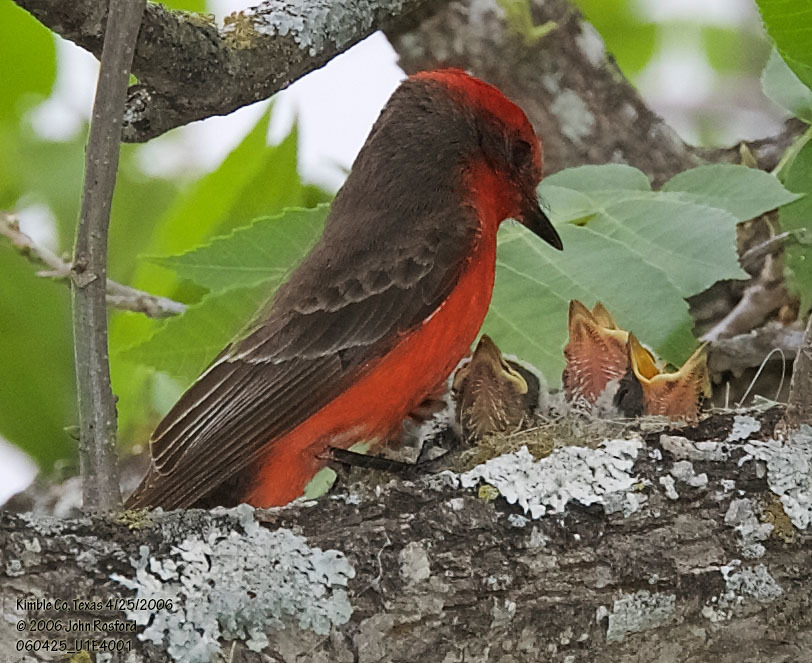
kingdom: Animalia
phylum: Chordata
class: Aves
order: Passeriformes
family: Tyrannidae
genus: Pyrocephalus
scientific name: Pyrocephalus rubinus
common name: Vermilion flycatcher
